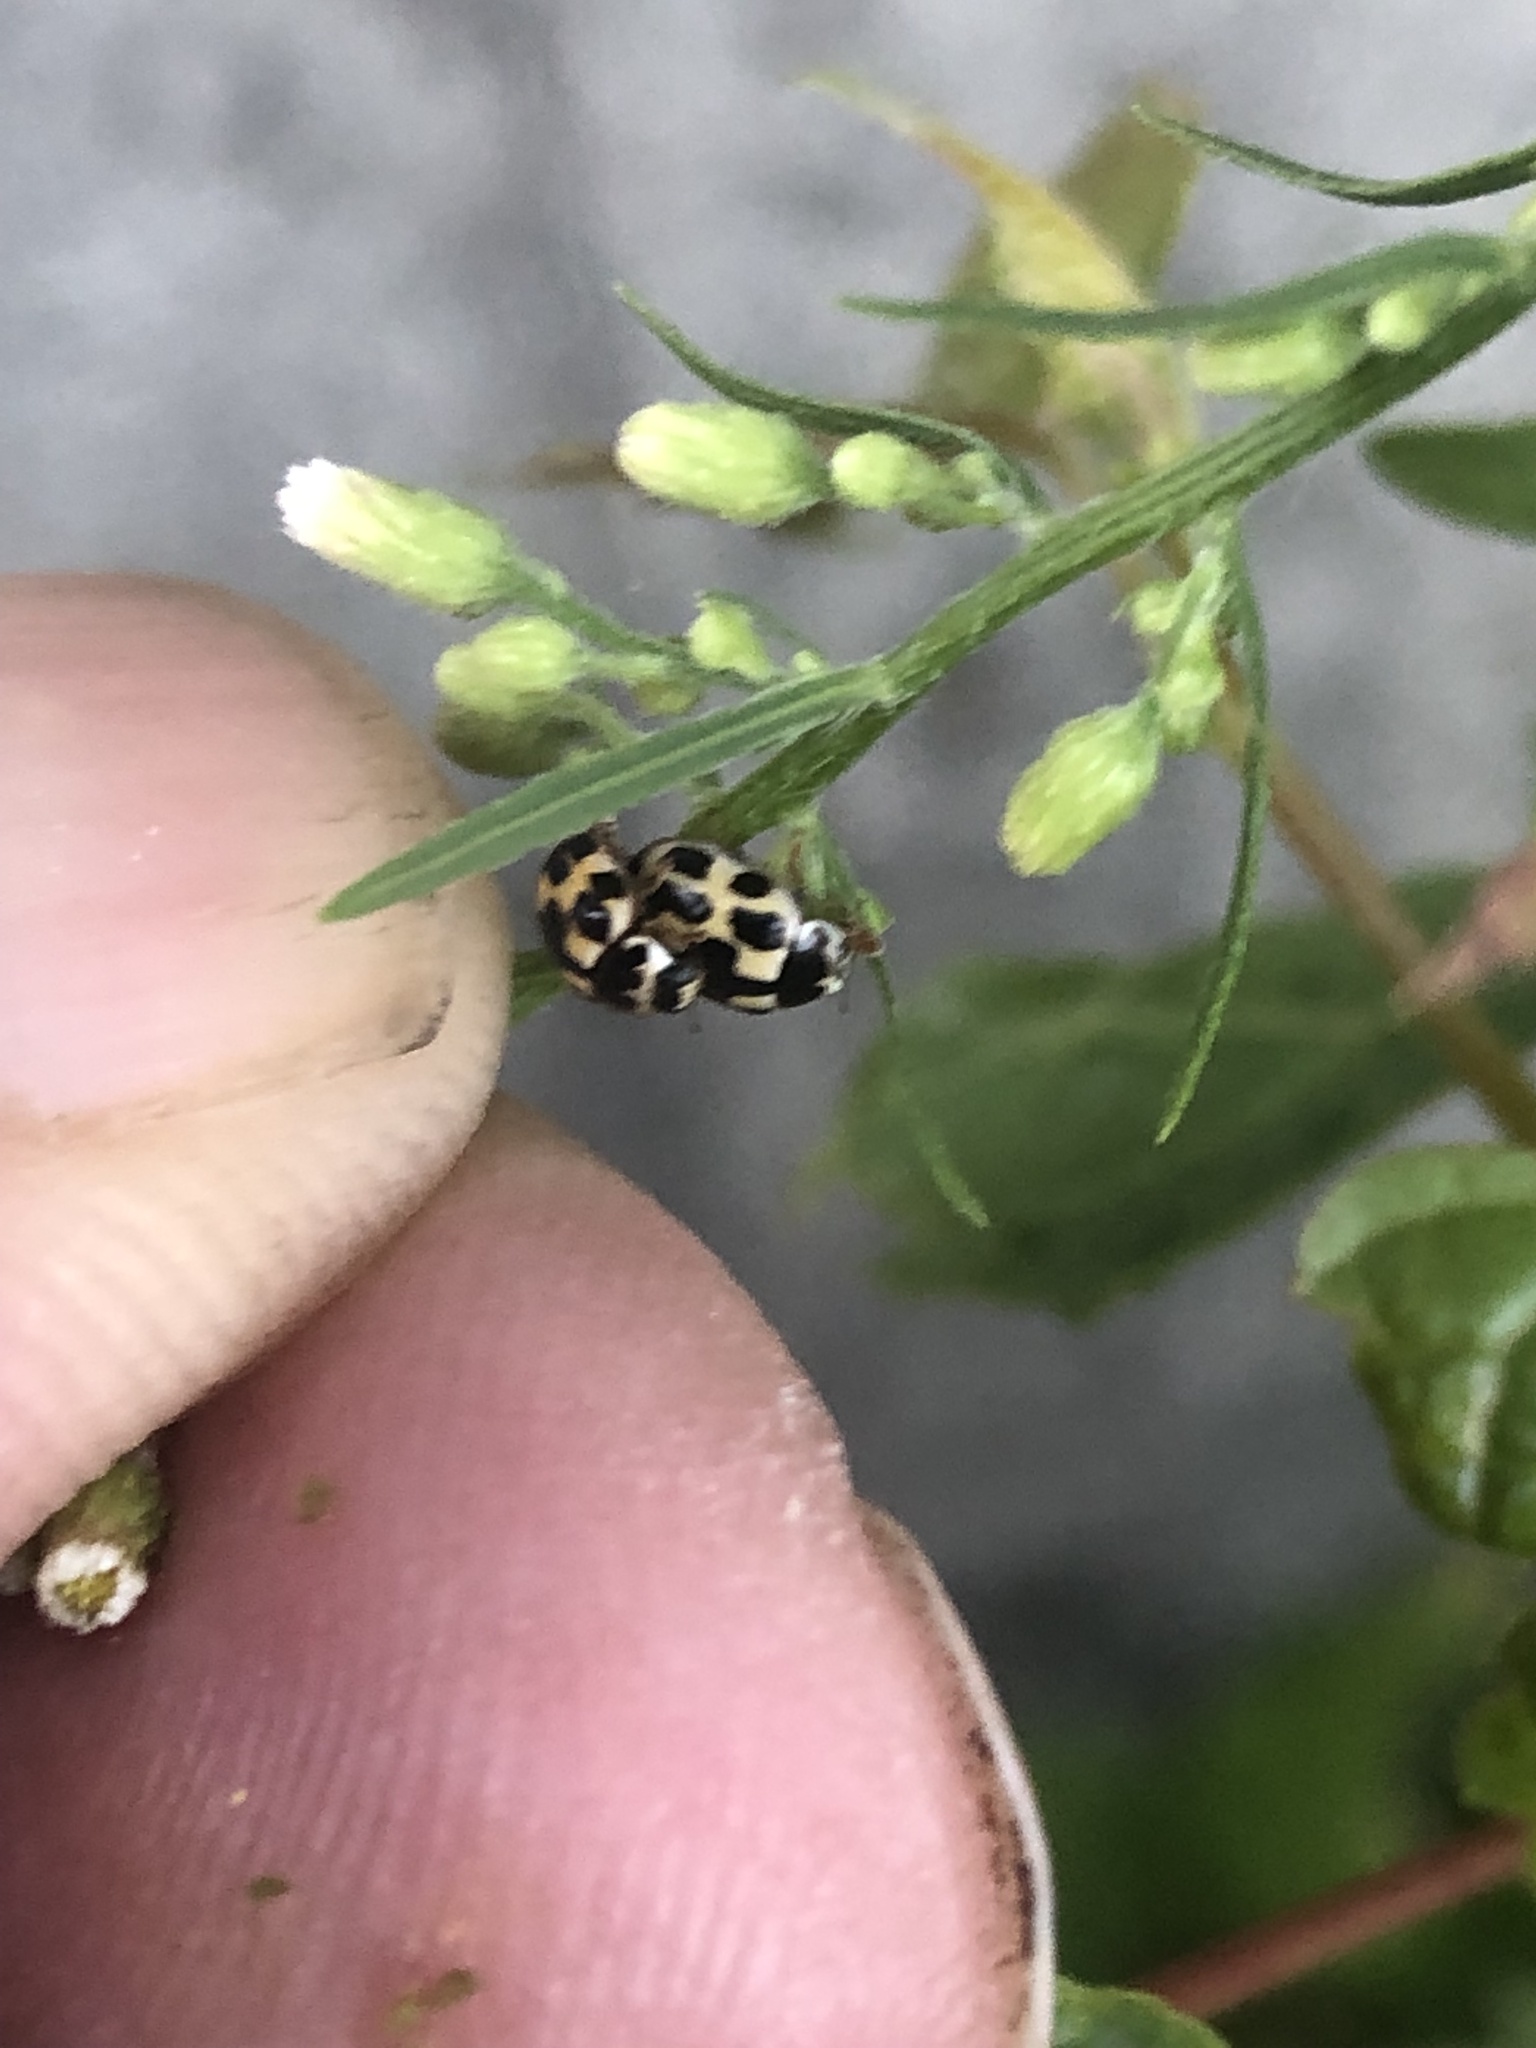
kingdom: Animalia
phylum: Arthropoda
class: Insecta
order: Coleoptera
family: Coccinellidae
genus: Propylaea
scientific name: Propylaea quatuordecimpunctata
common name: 14-spotted ladybird beetle
